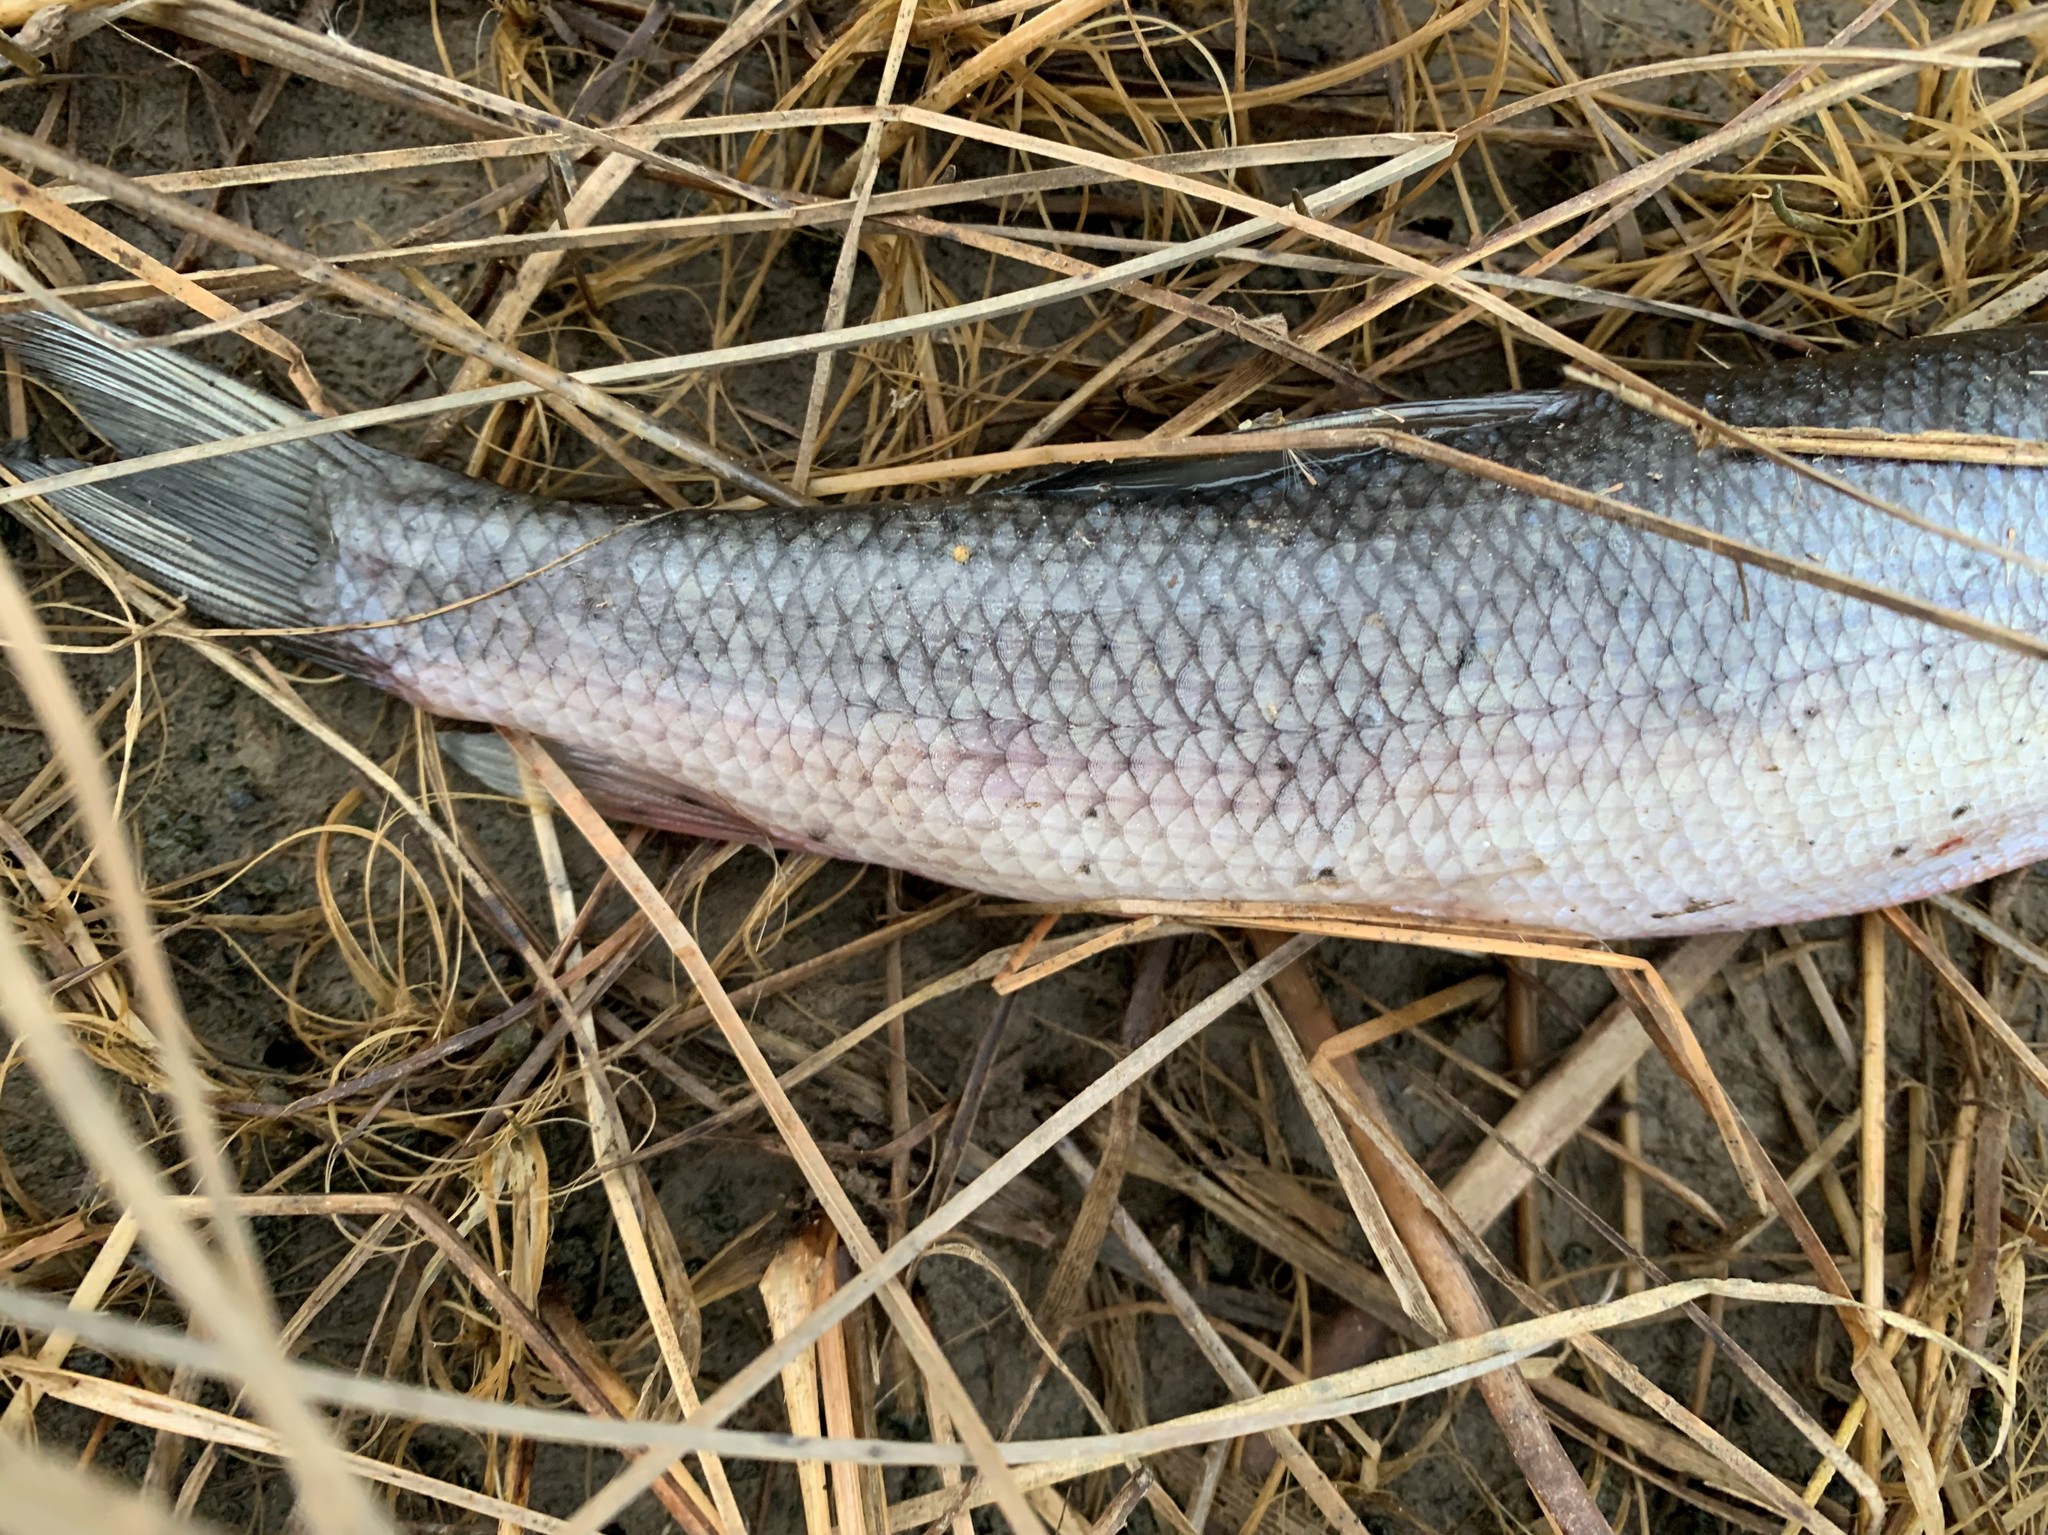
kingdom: Animalia
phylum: Chordata
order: Cypriniformes
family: Catostomidae
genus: Catostomus
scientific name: Catostomus commersonii
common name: White sucker
